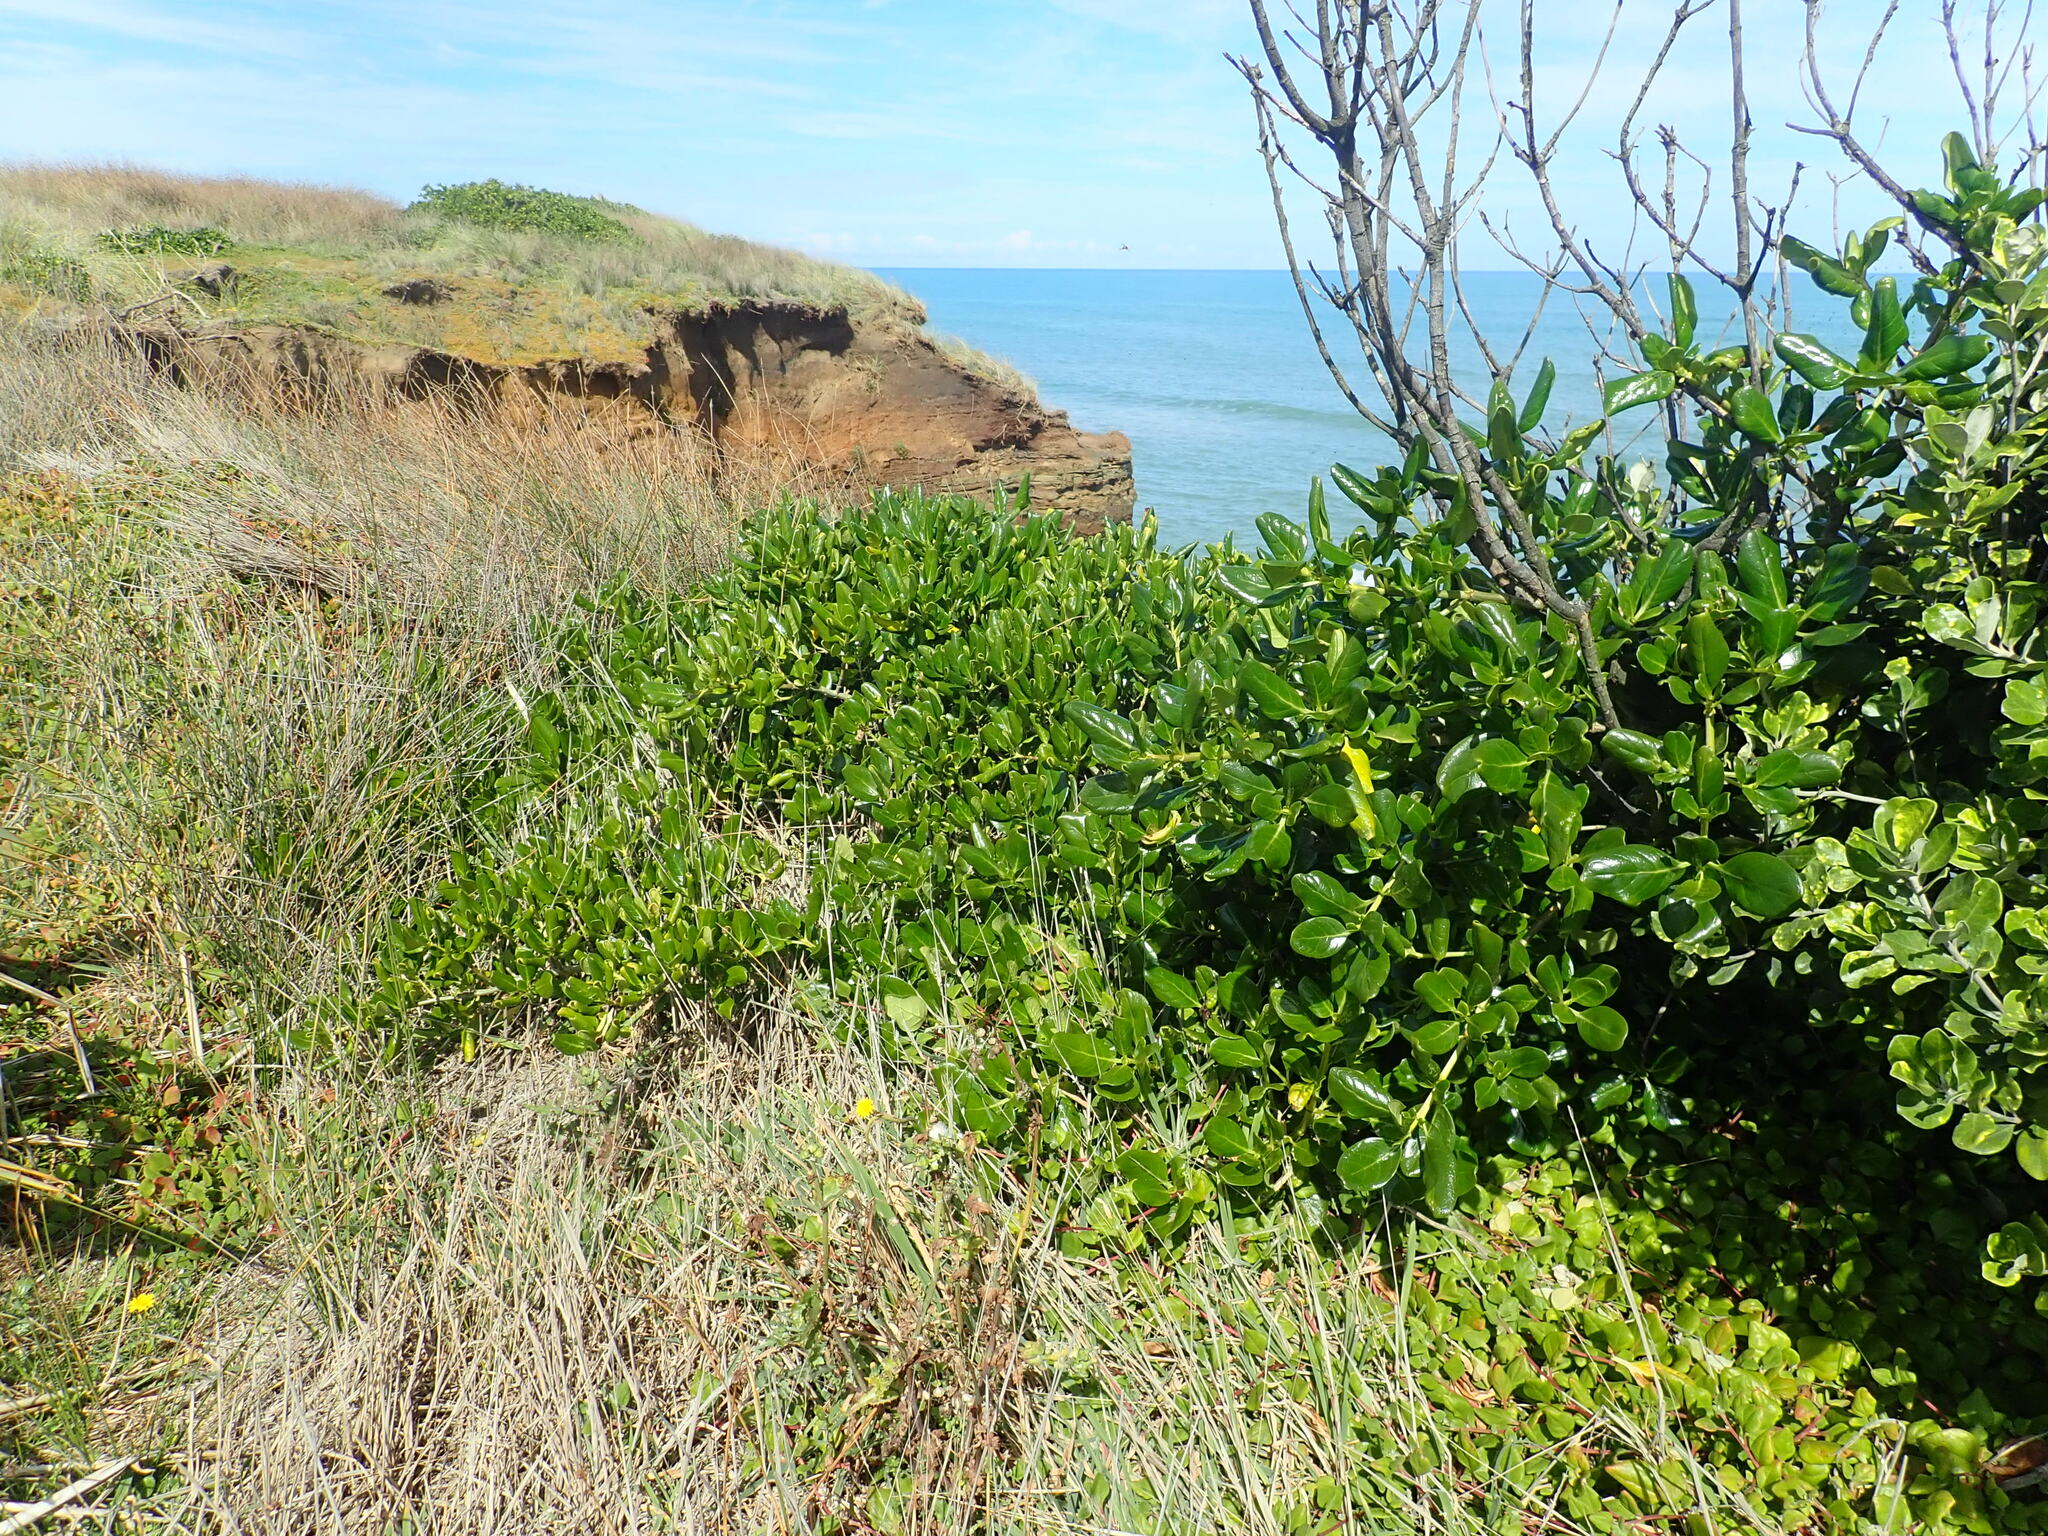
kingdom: Plantae
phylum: Tracheophyta
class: Magnoliopsida
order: Gentianales
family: Rubiaceae
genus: Coprosma
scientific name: Coprosma repens
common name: Tree bedstraw
